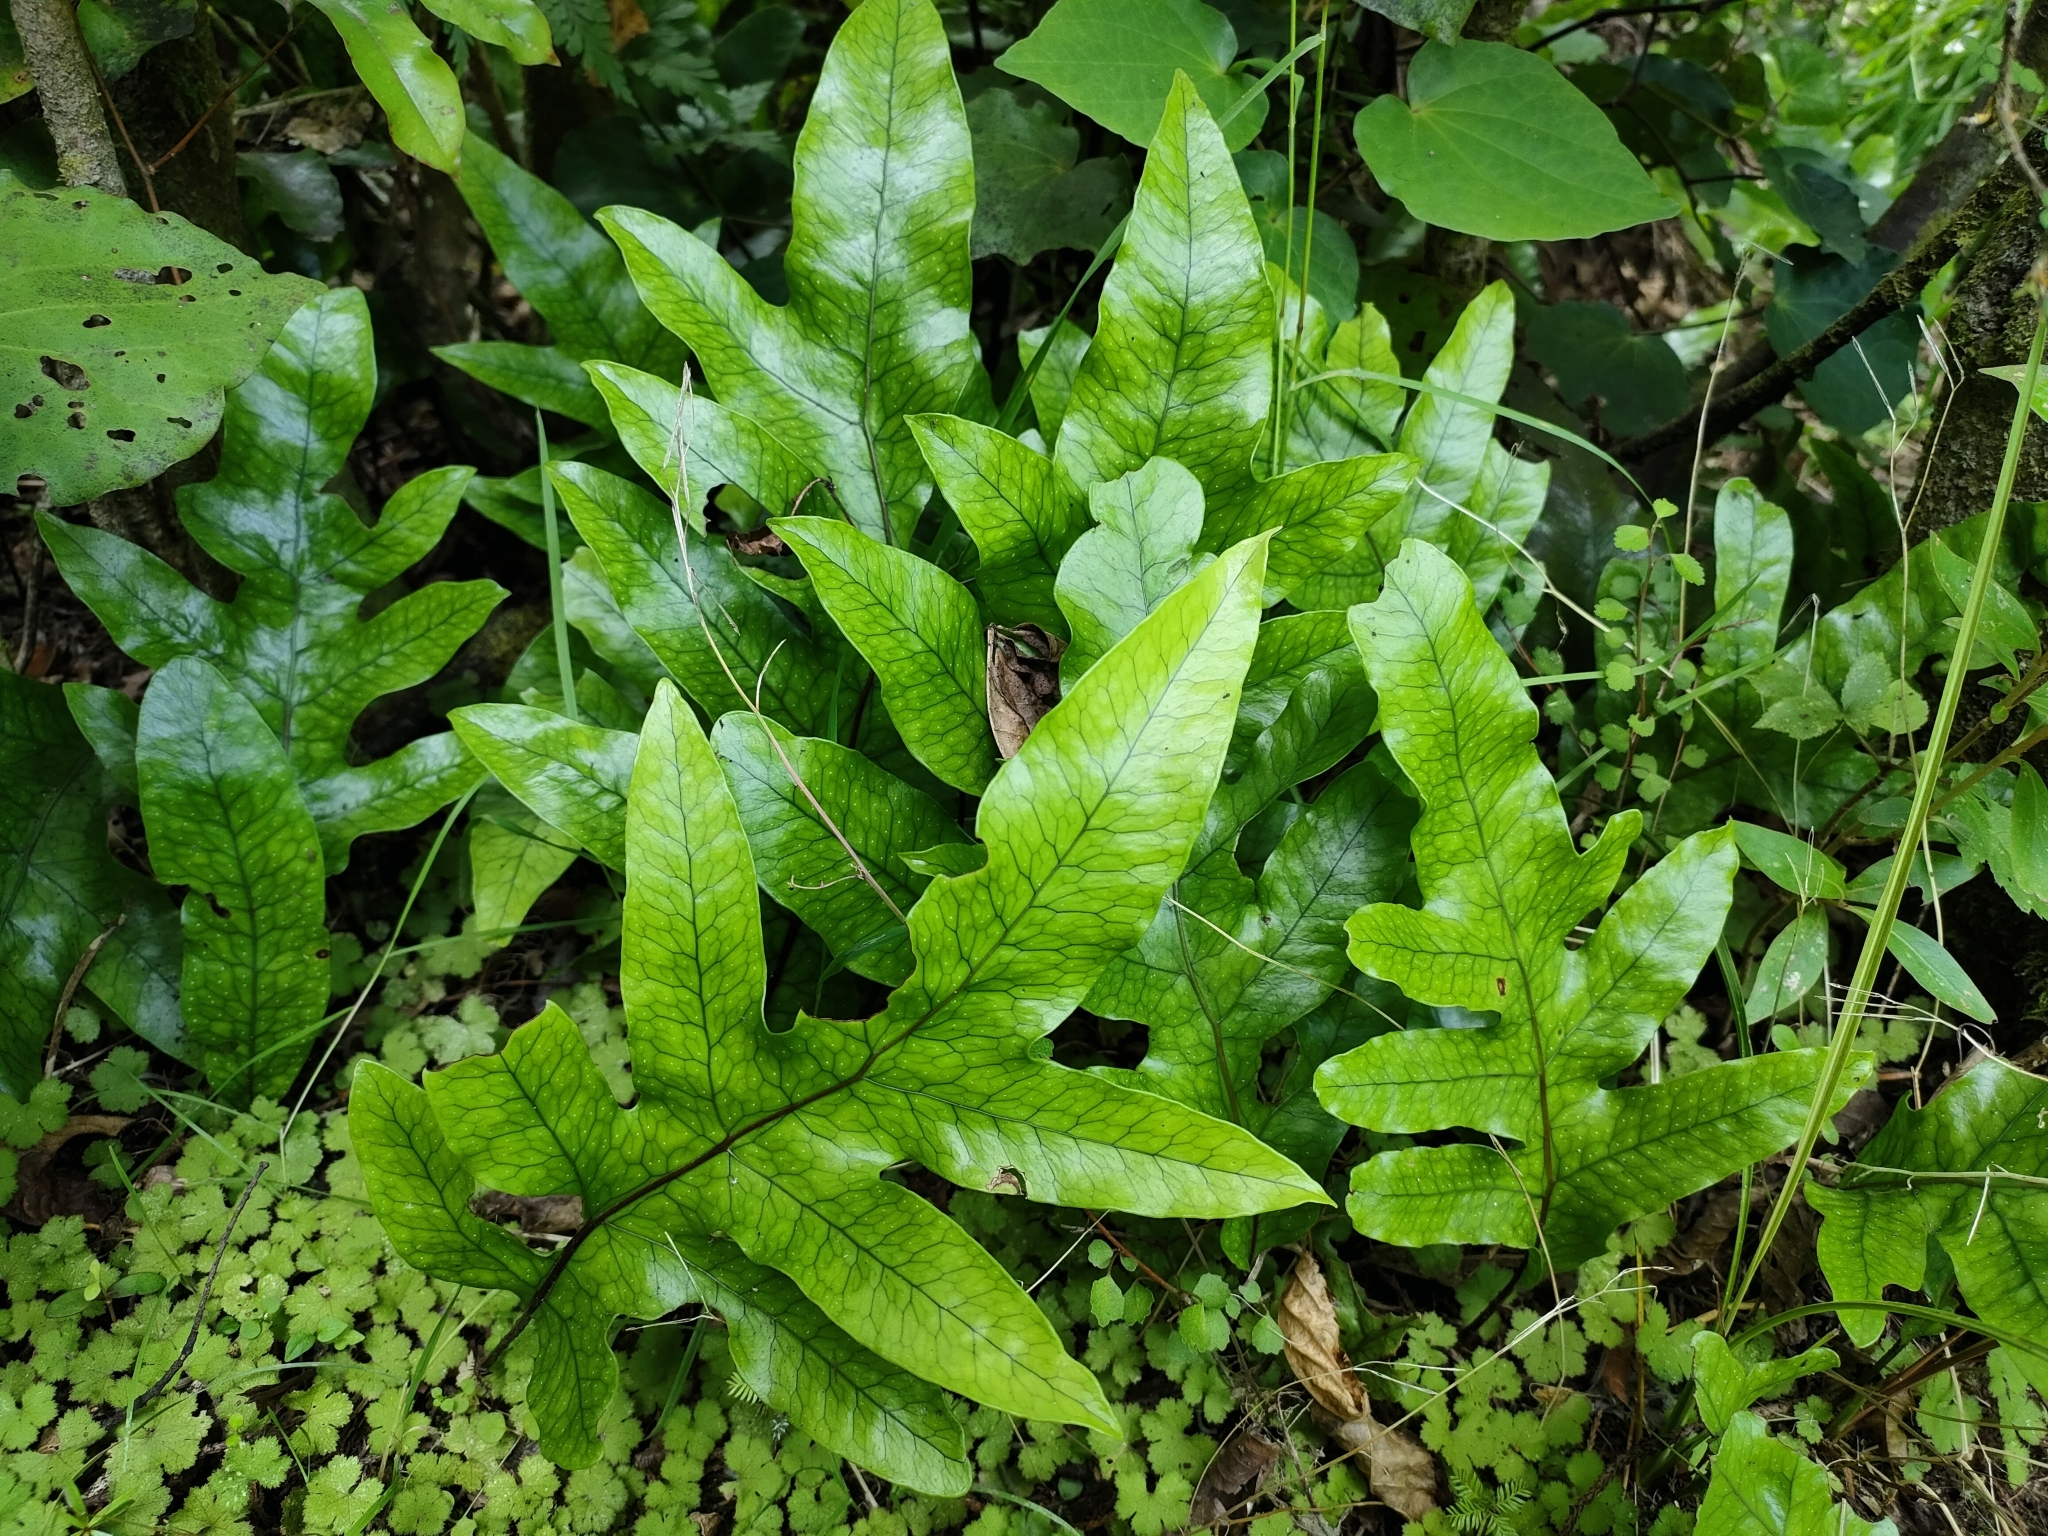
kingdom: Plantae
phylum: Tracheophyta
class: Polypodiopsida
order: Polypodiales
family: Polypodiaceae
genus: Lecanopteris
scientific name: Lecanopteris pustulata
